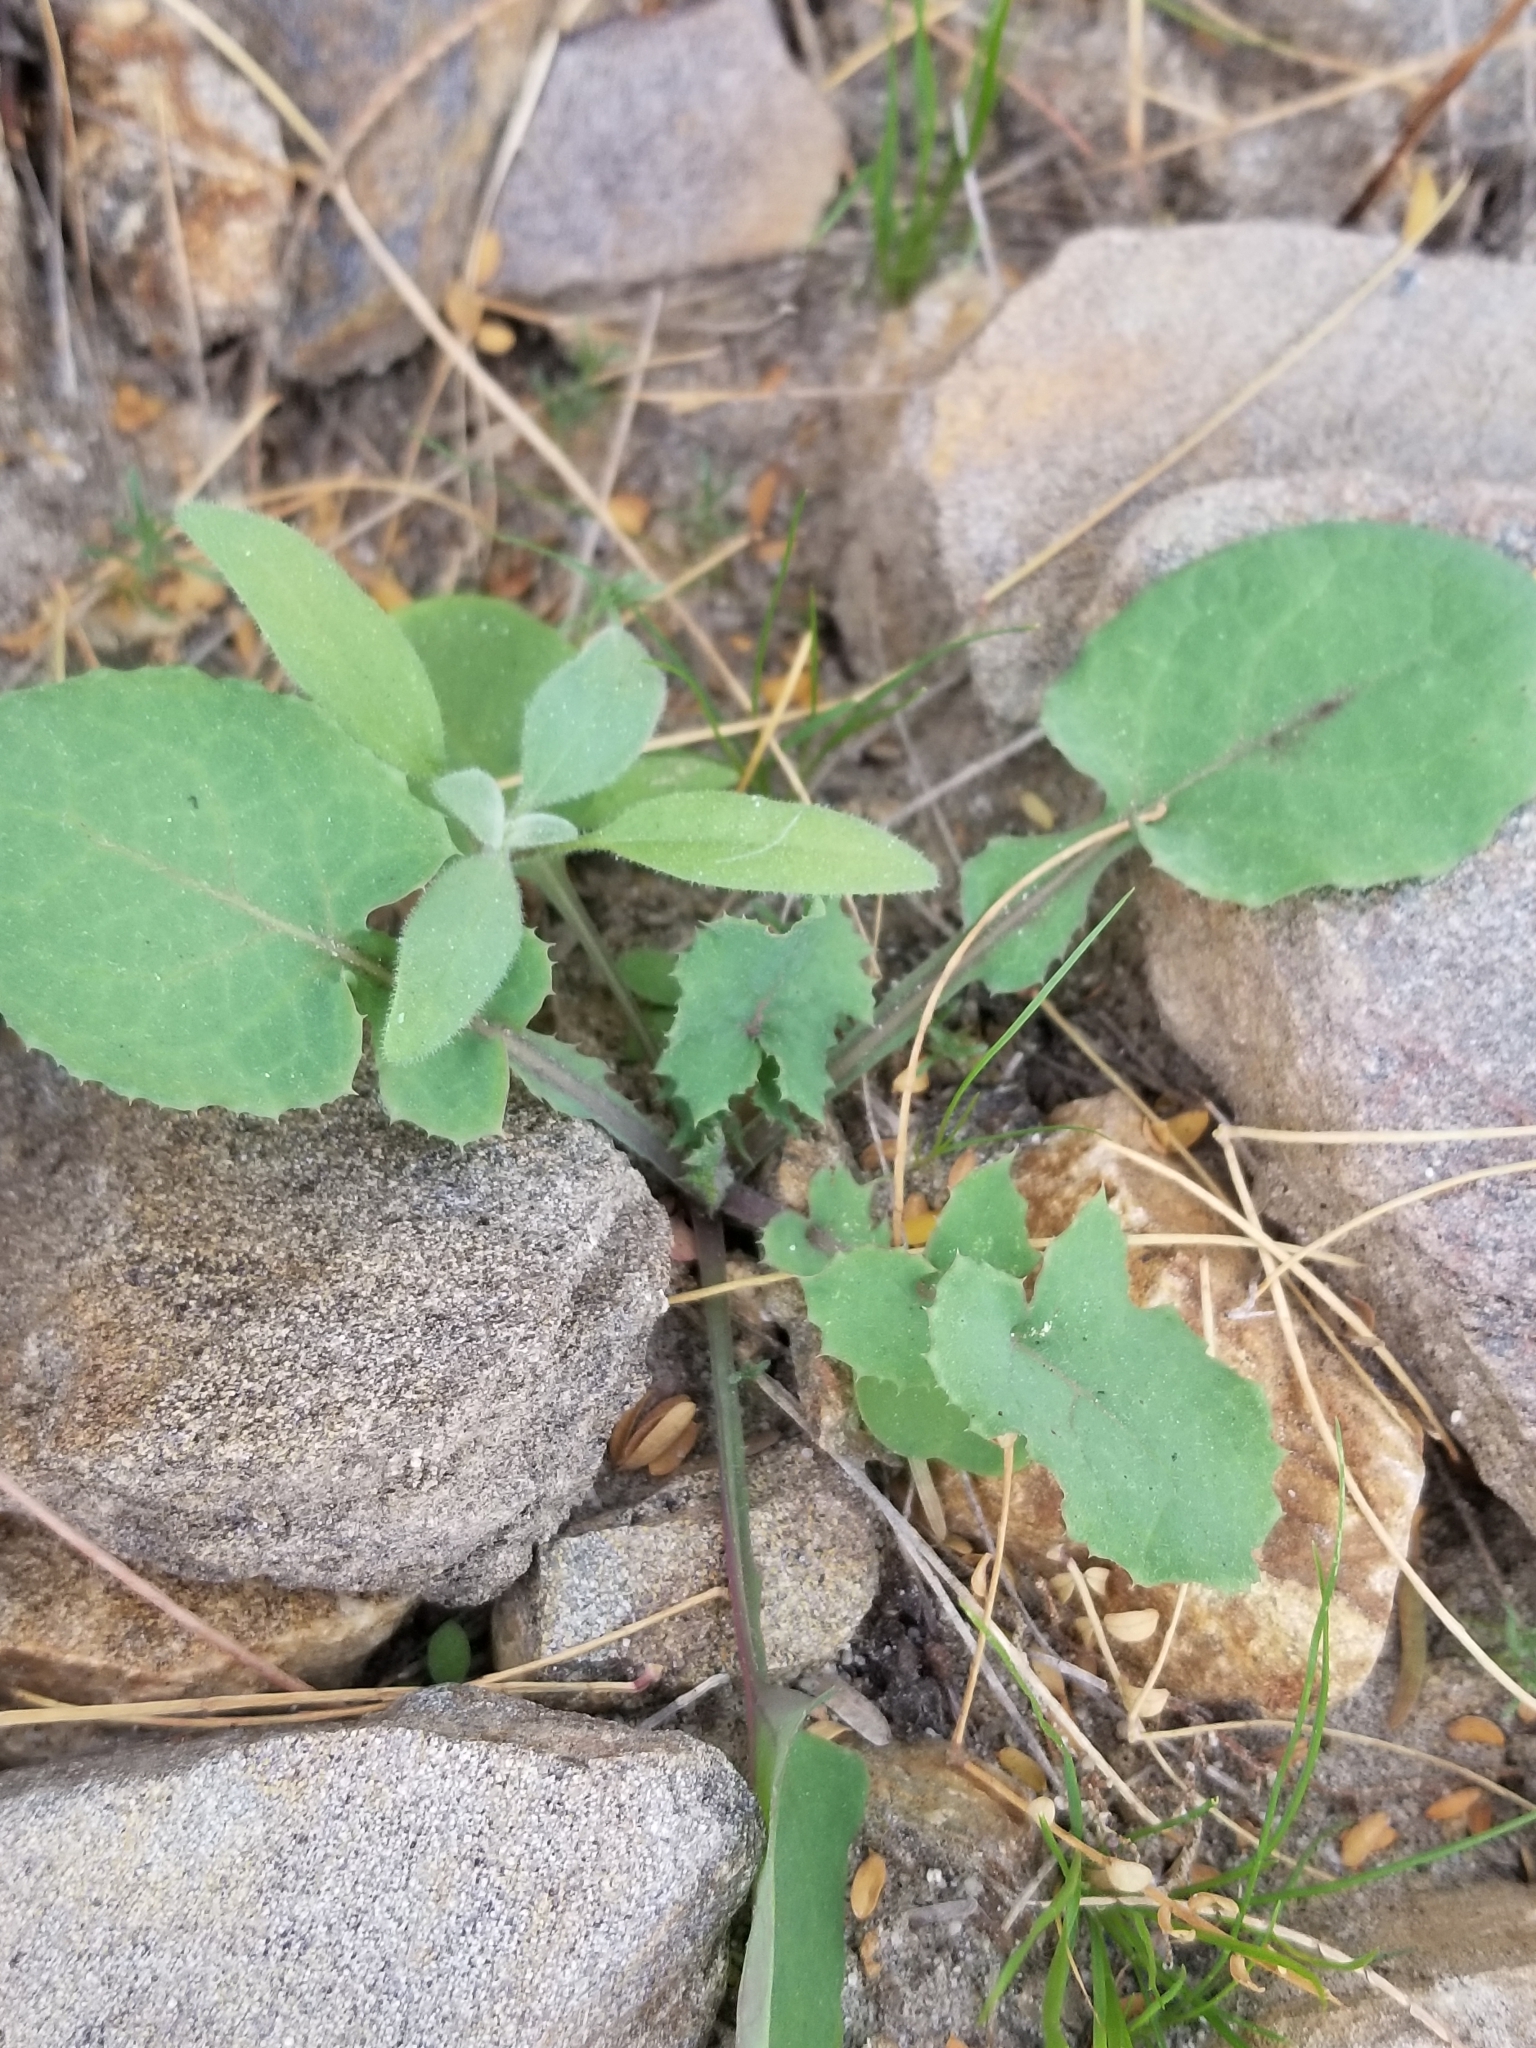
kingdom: Plantae
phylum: Tracheophyta
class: Magnoliopsida
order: Asterales
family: Asteraceae
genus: Sonchus
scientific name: Sonchus oleraceus
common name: Common sowthistle
